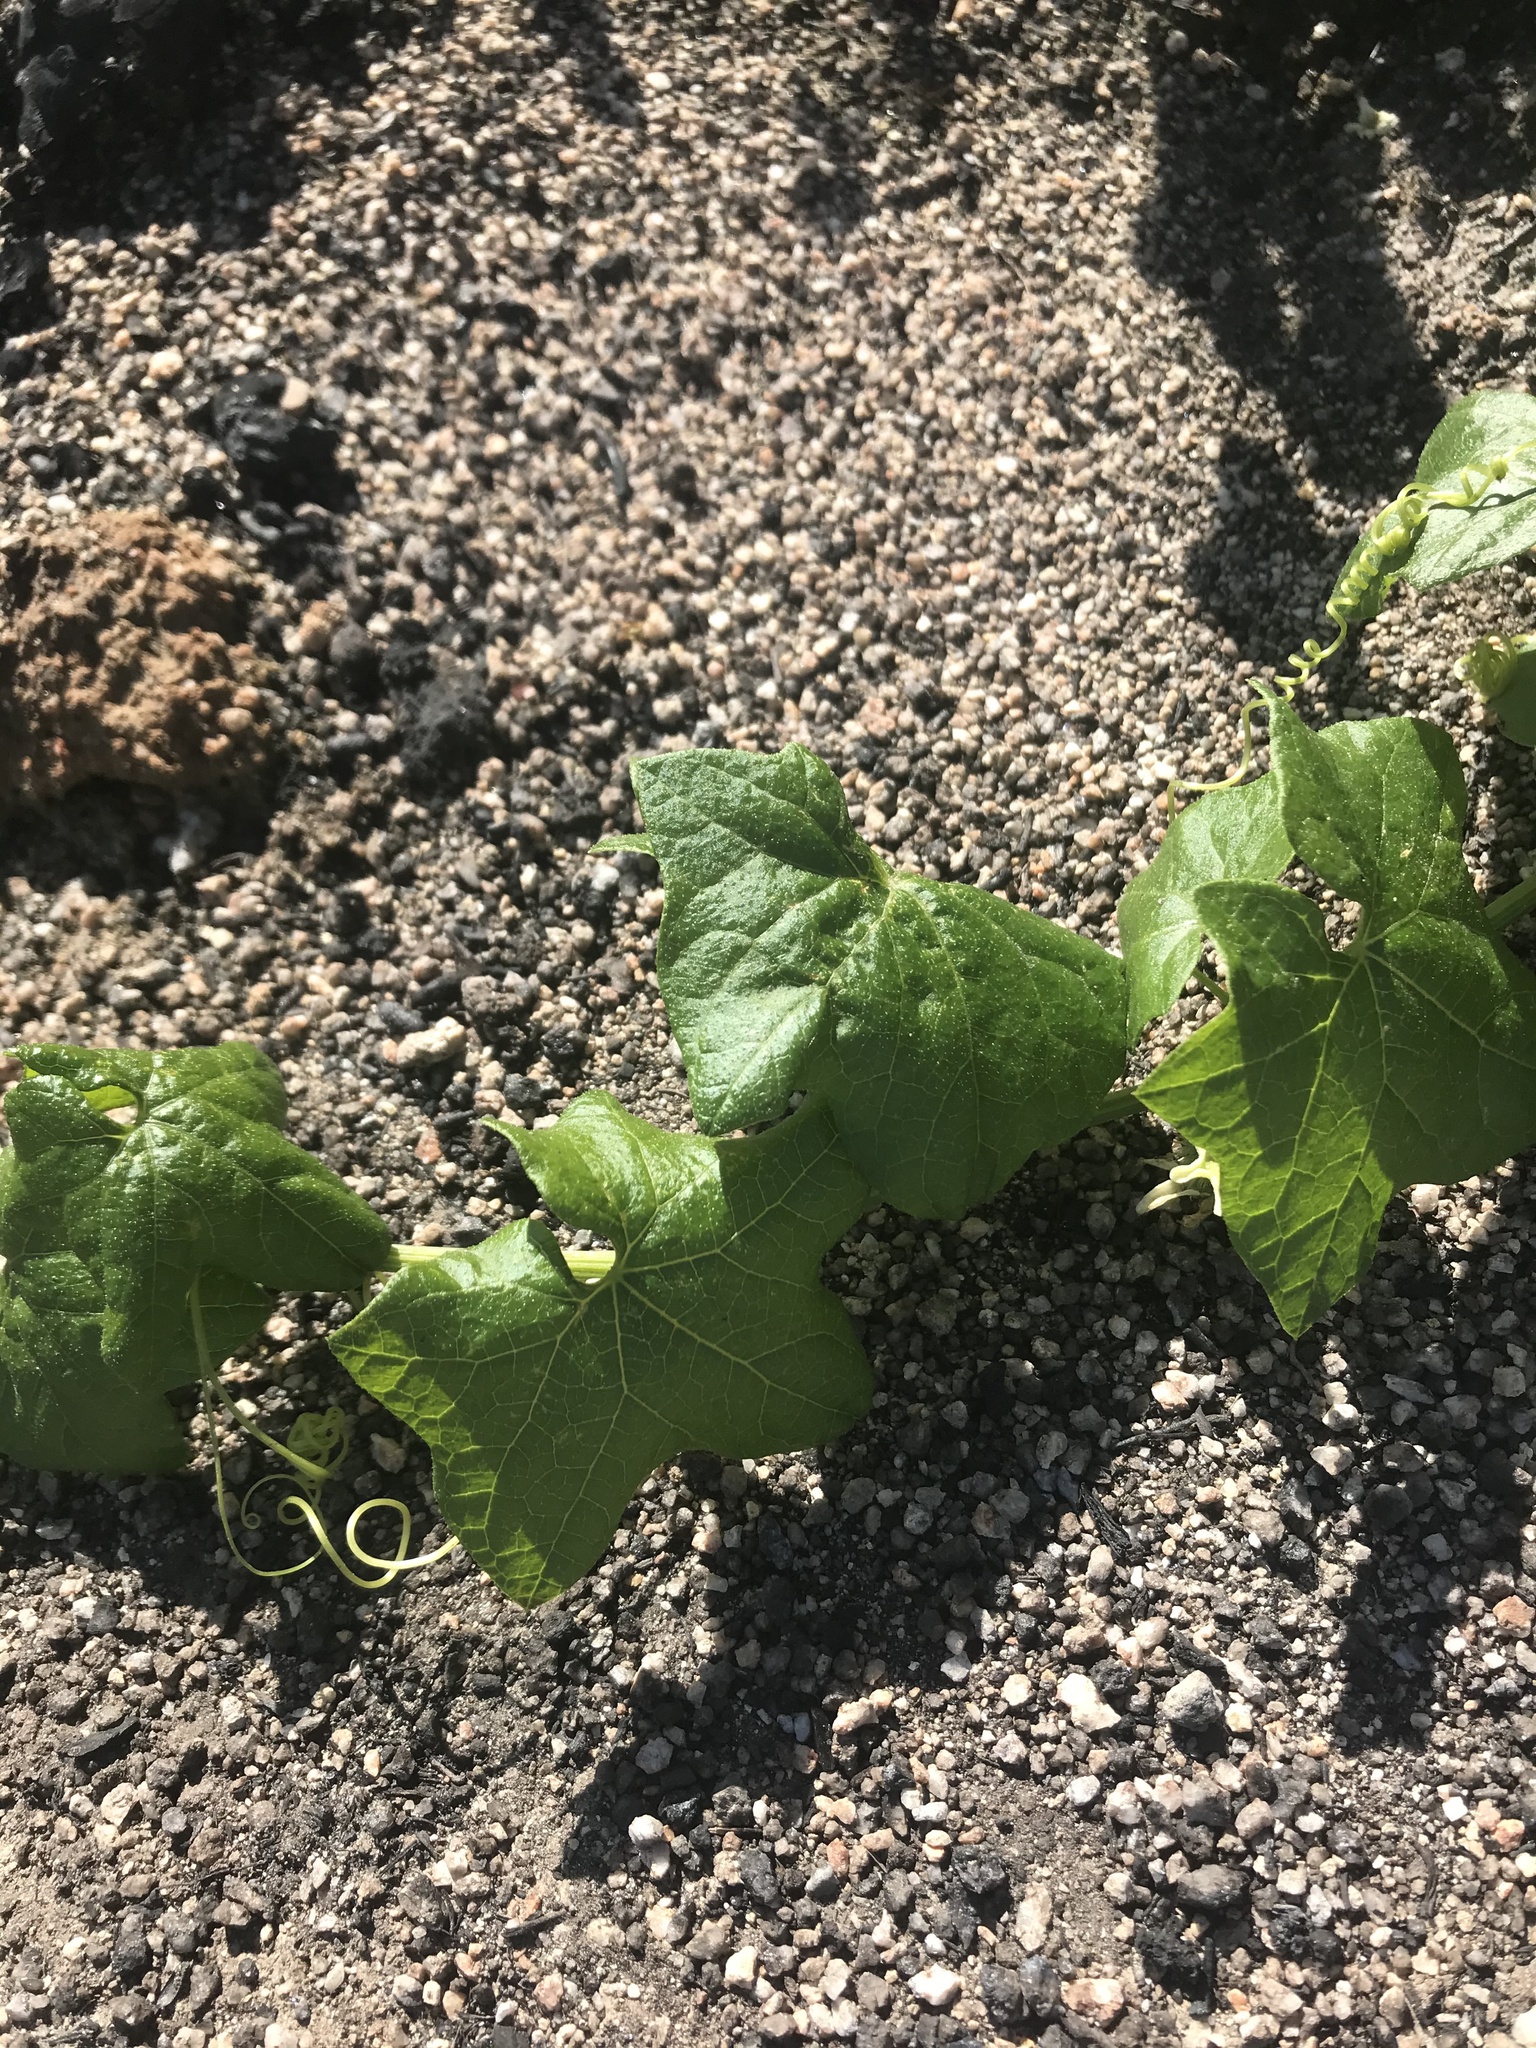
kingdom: Plantae
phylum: Tracheophyta
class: Magnoliopsida
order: Cucurbitales
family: Cucurbitaceae
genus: Marah
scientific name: Marah fabacea
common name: California manroot
